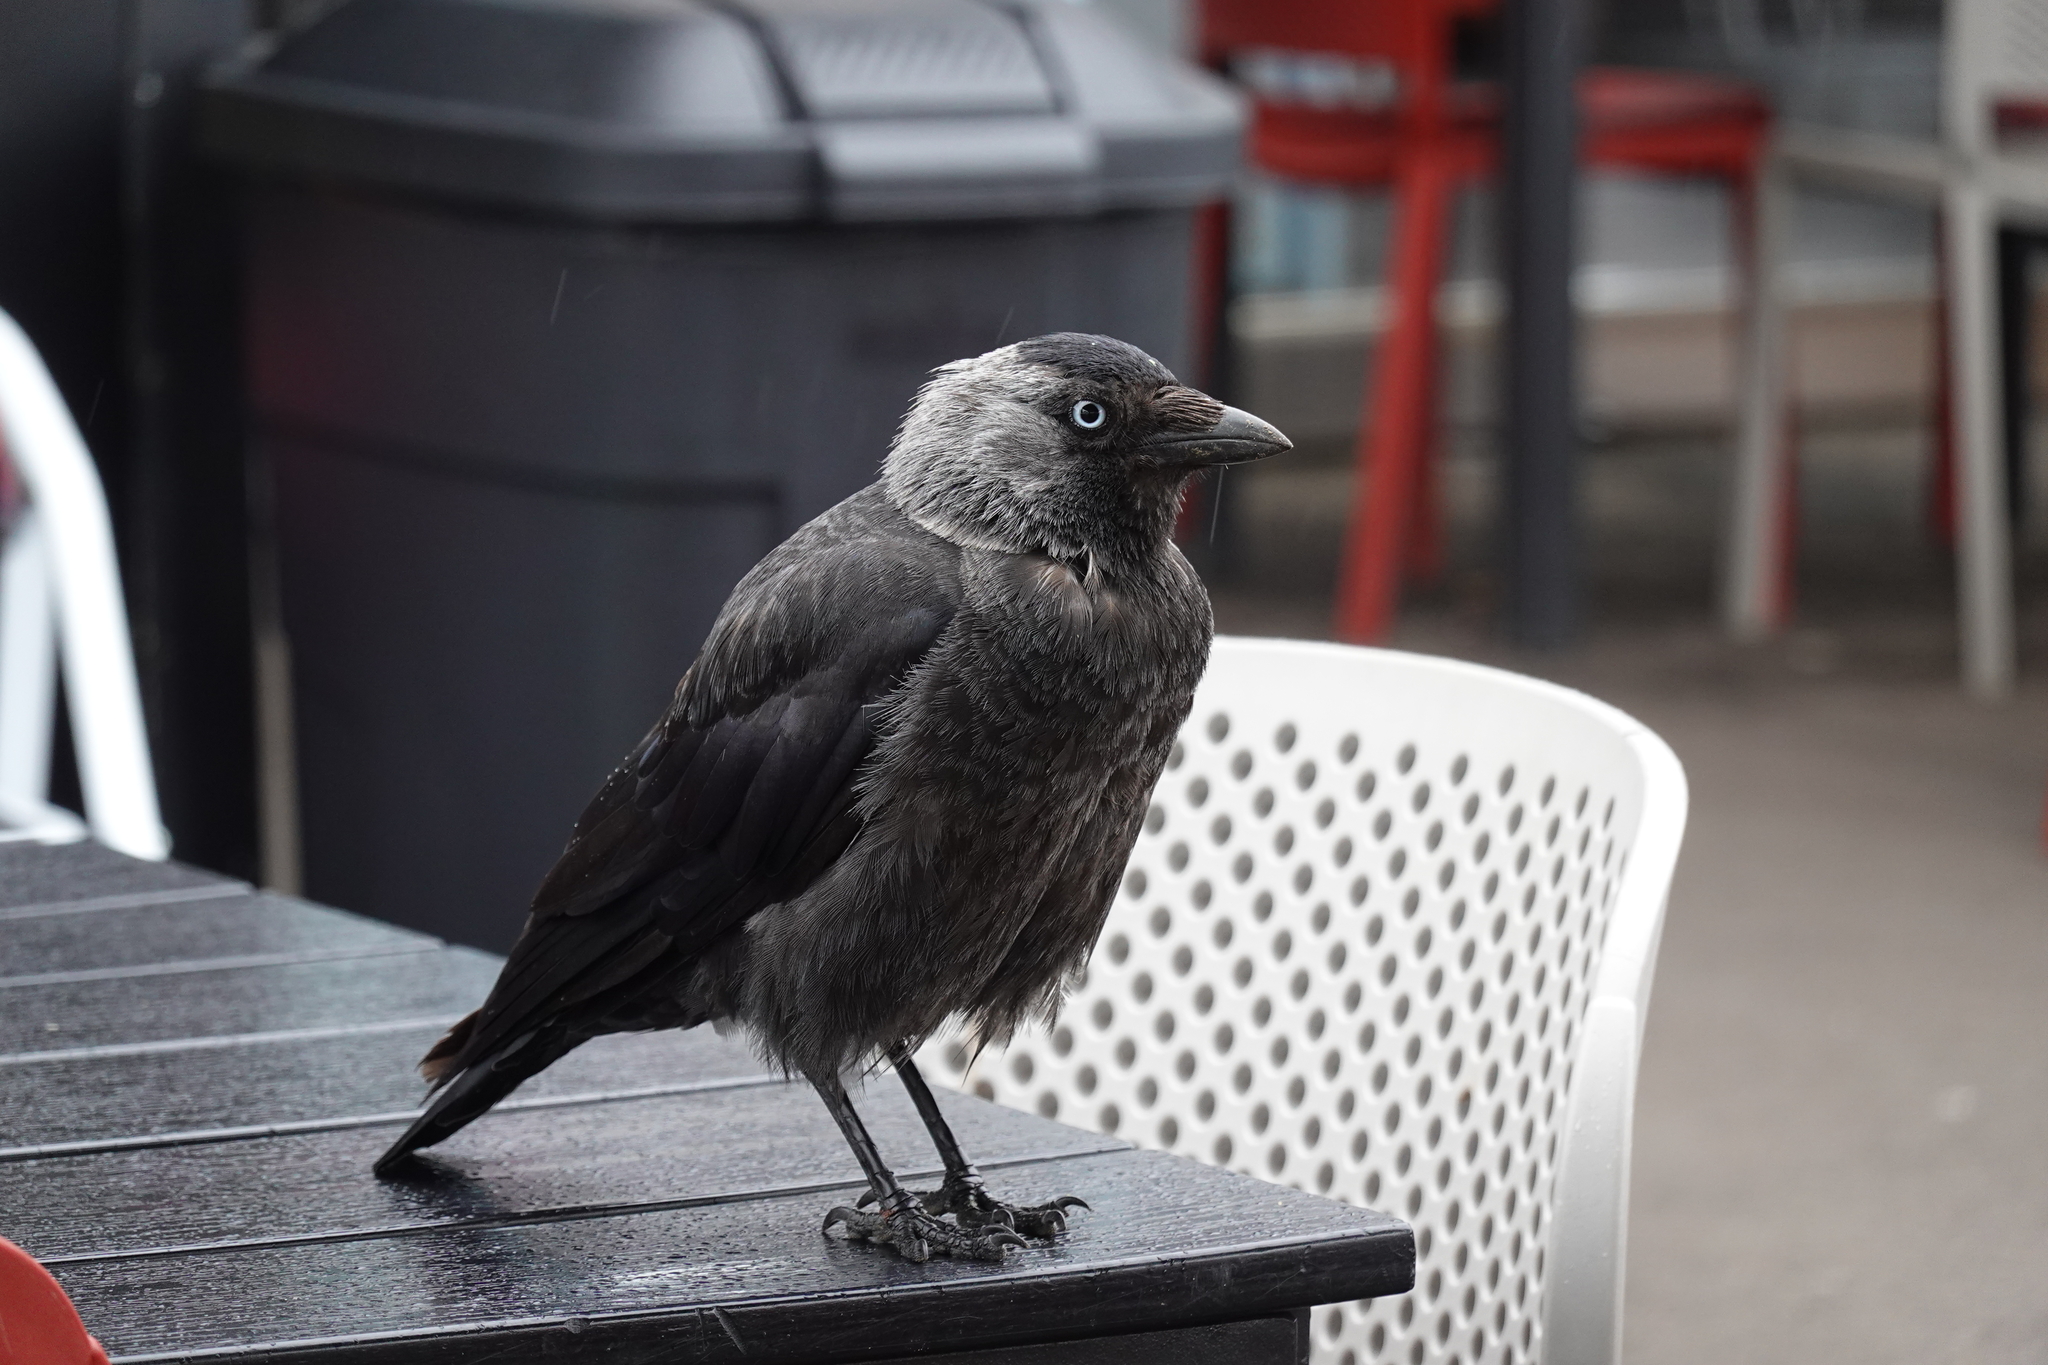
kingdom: Animalia
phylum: Chordata
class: Aves
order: Passeriformes
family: Corvidae
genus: Coloeus
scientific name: Coloeus monedula
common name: Western jackdaw
